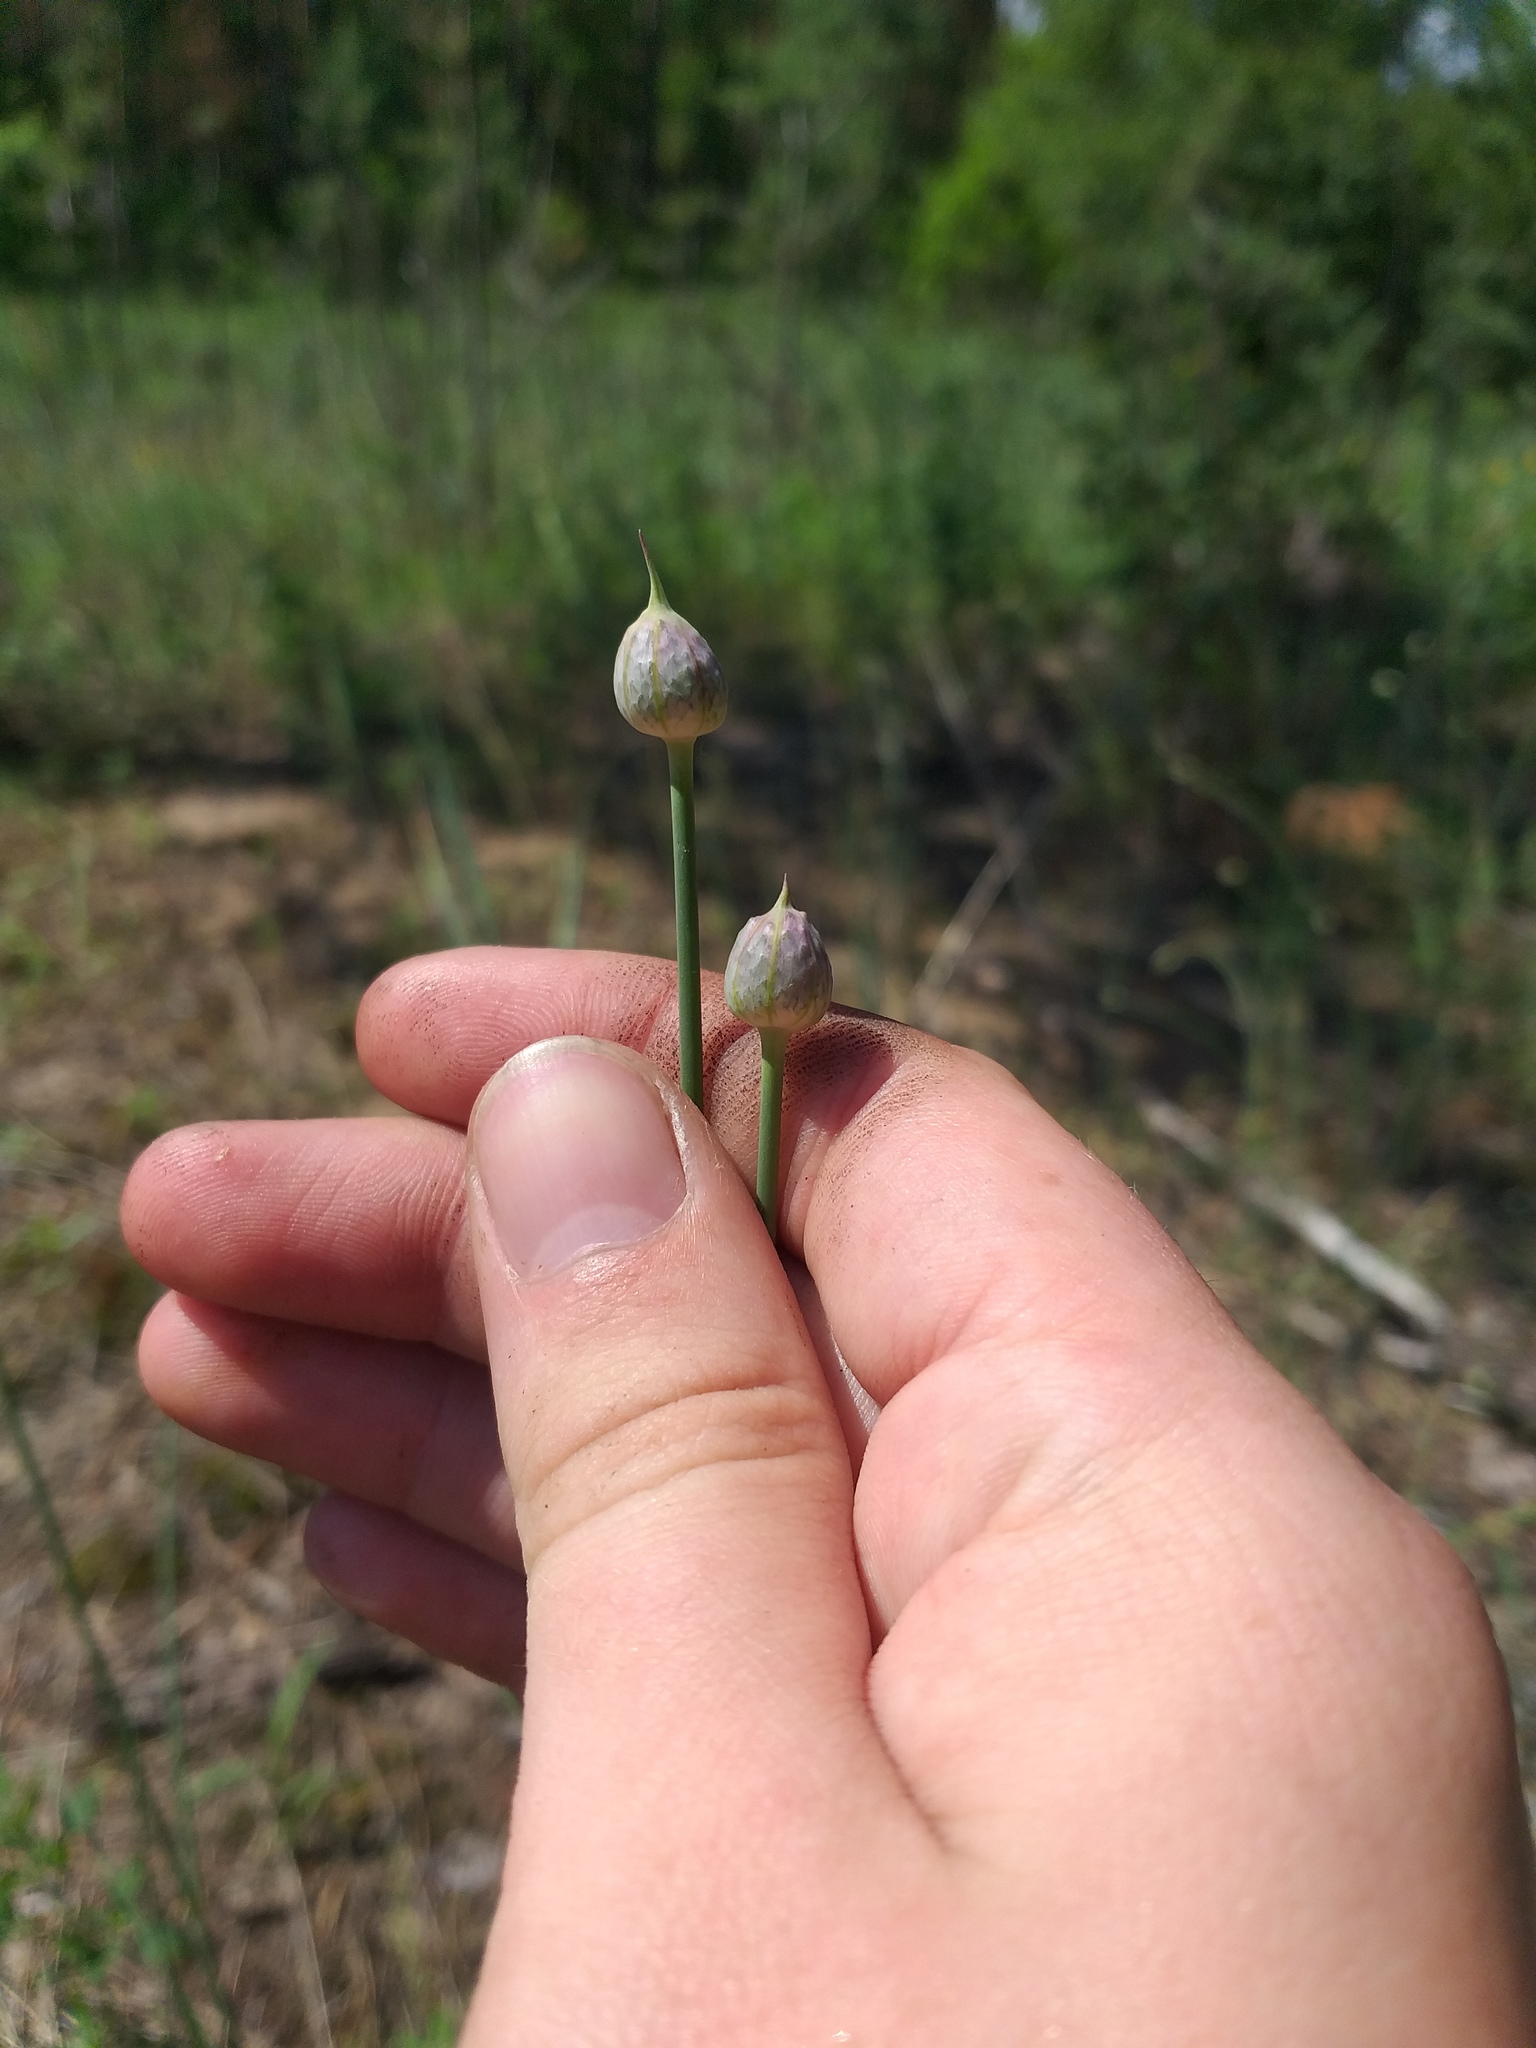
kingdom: Plantae
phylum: Tracheophyta
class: Liliopsida
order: Asparagales
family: Amaryllidaceae
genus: Allium
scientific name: Allium sphaerocephalon
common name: Round-headed leek
